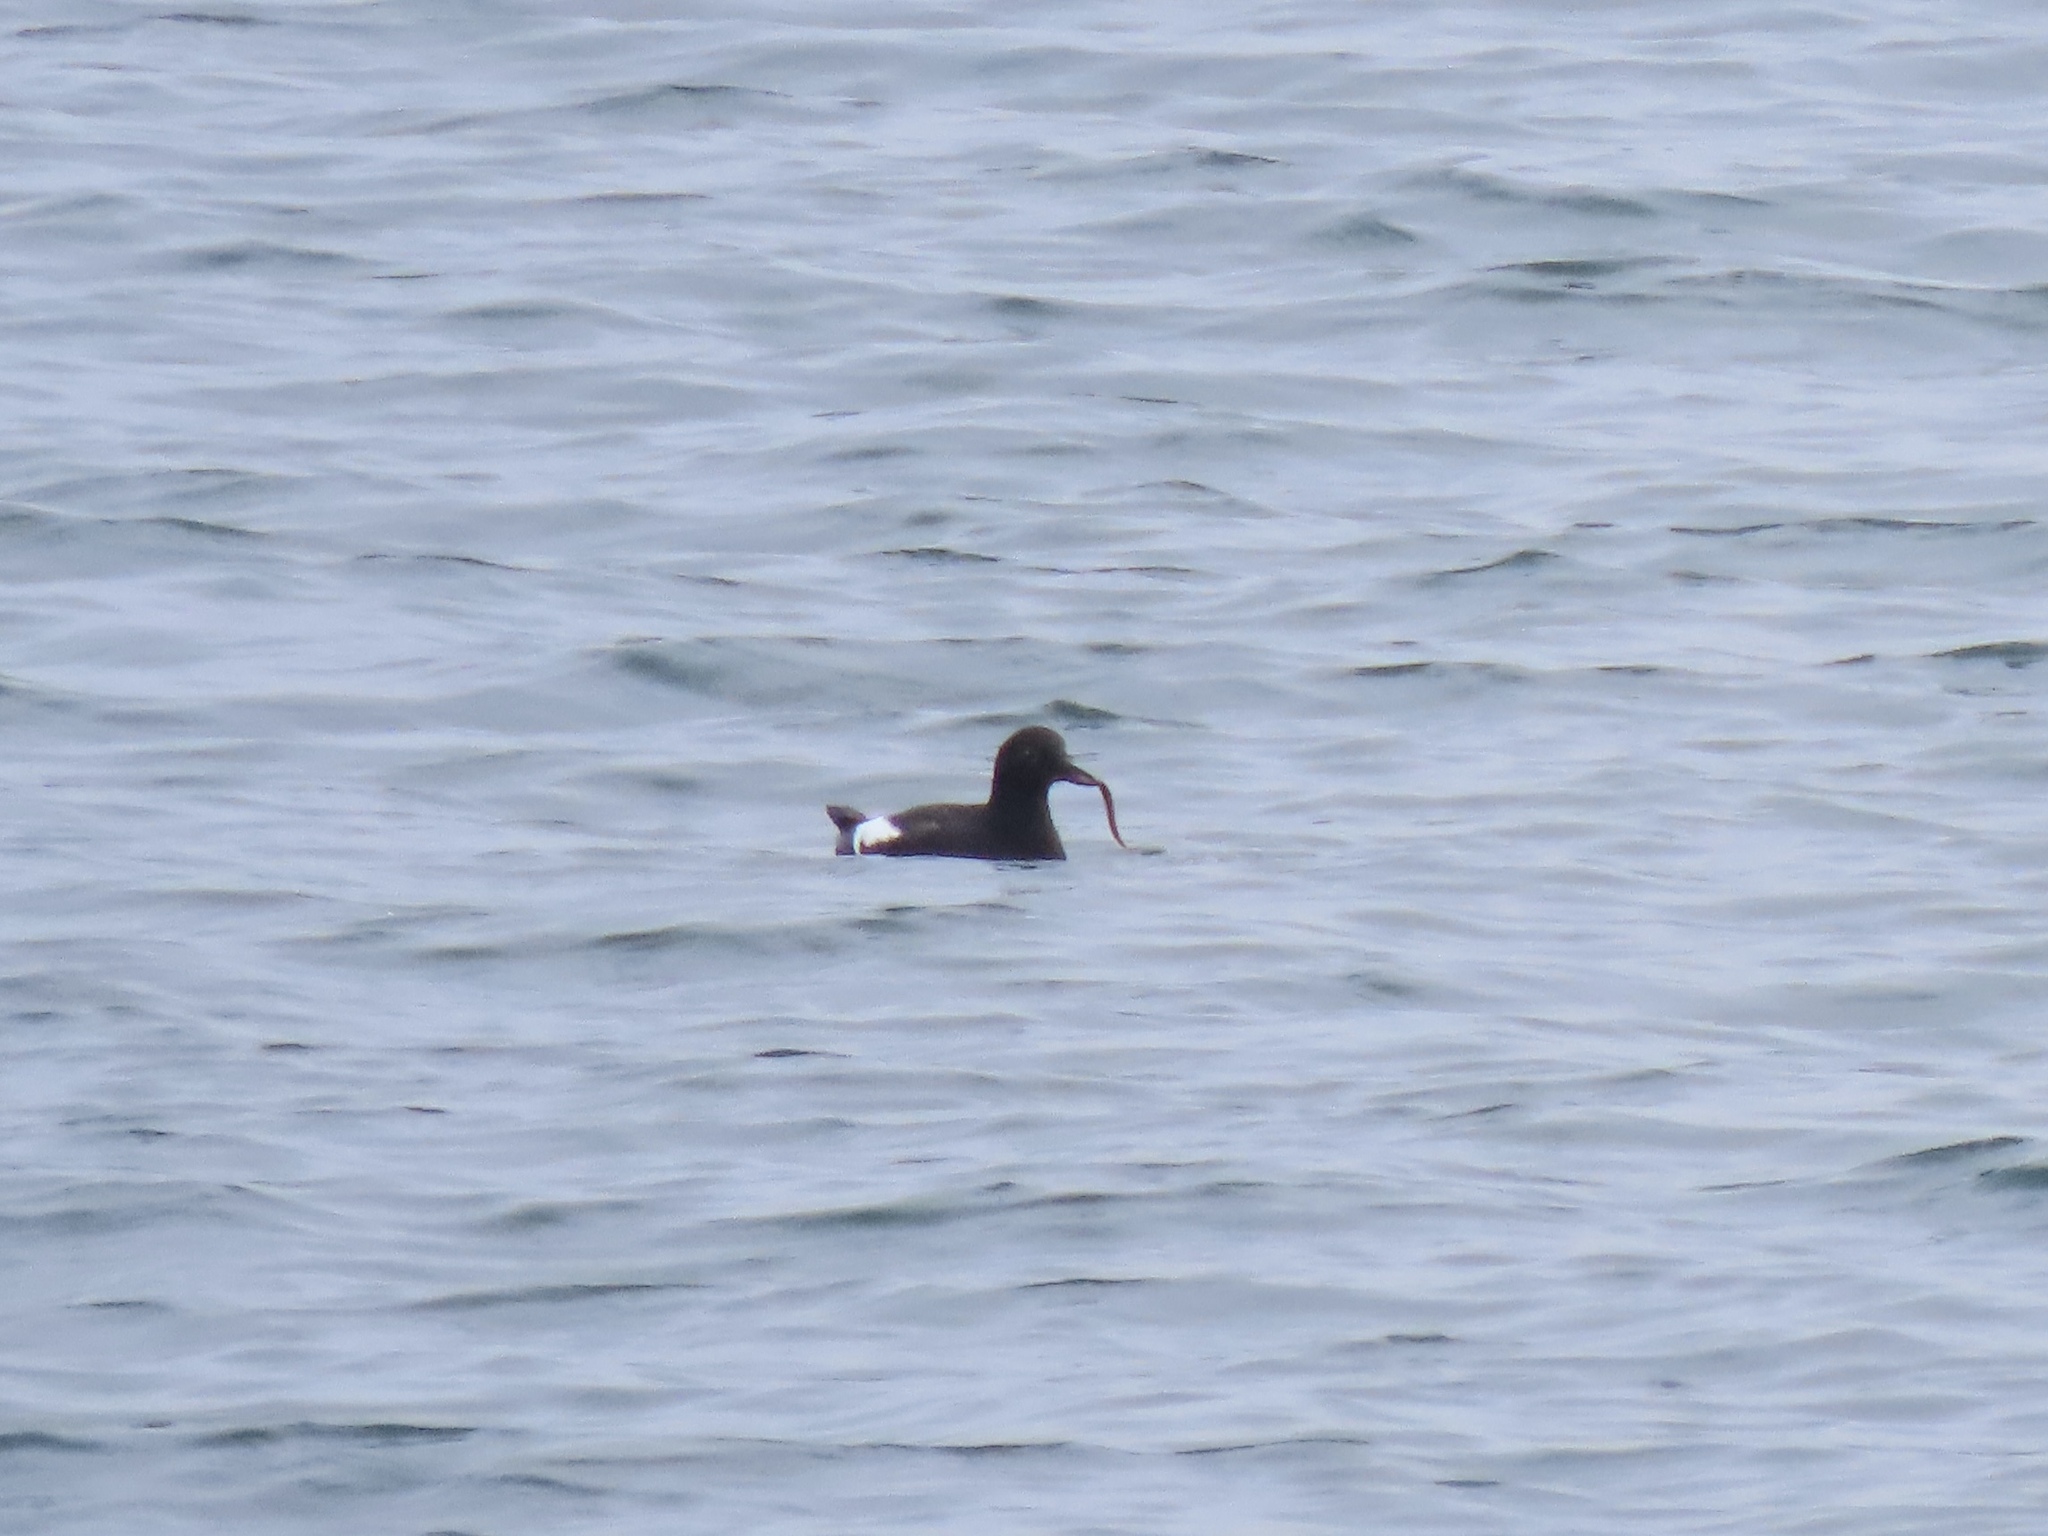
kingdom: Animalia
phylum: Chordata
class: Aves
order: Charadriiformes
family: Alcidae
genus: Cepphus
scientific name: Cepphus columba
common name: Pigeon guillemot
